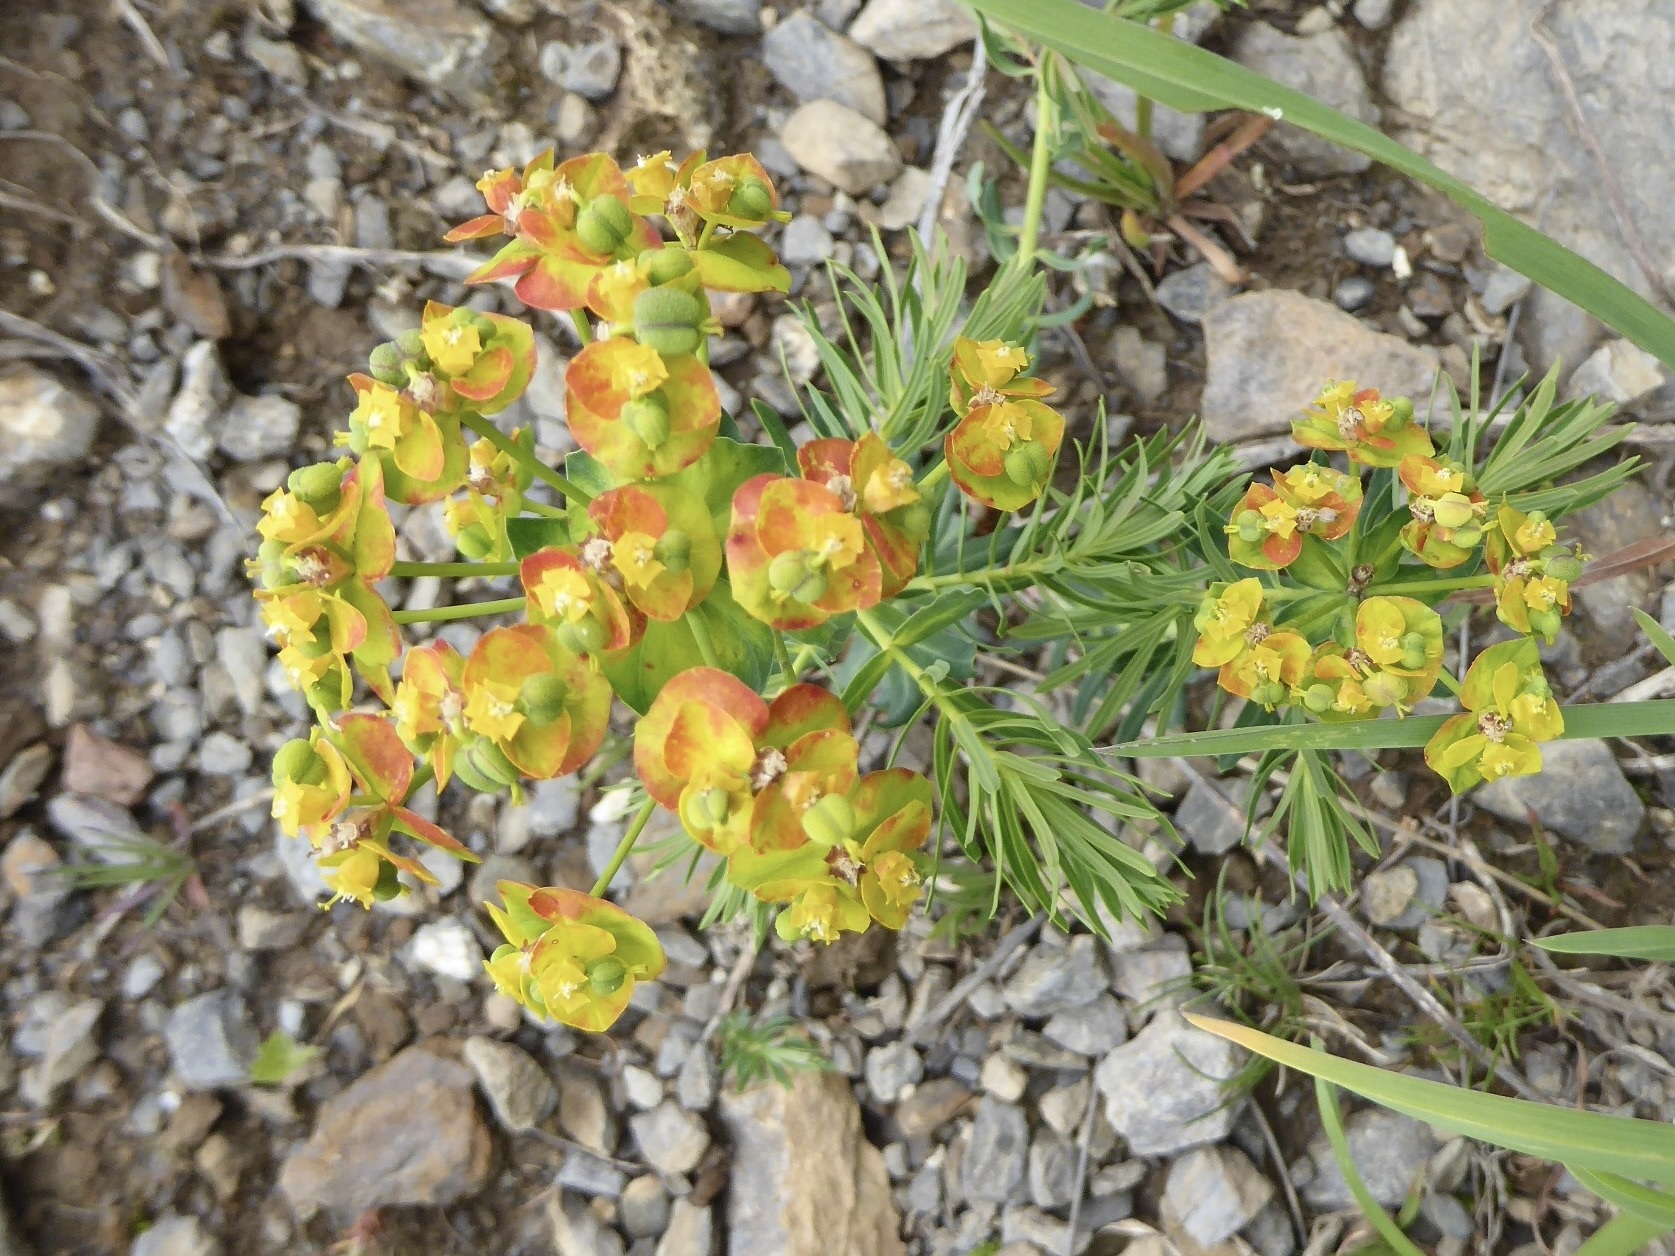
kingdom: Plantae
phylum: Tracheophyta
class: Magnoliopsida
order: Malpighiales
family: Euphorbiaceae
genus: Euphorbia
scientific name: Euphorbia cyparissias
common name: Cypress spurge
